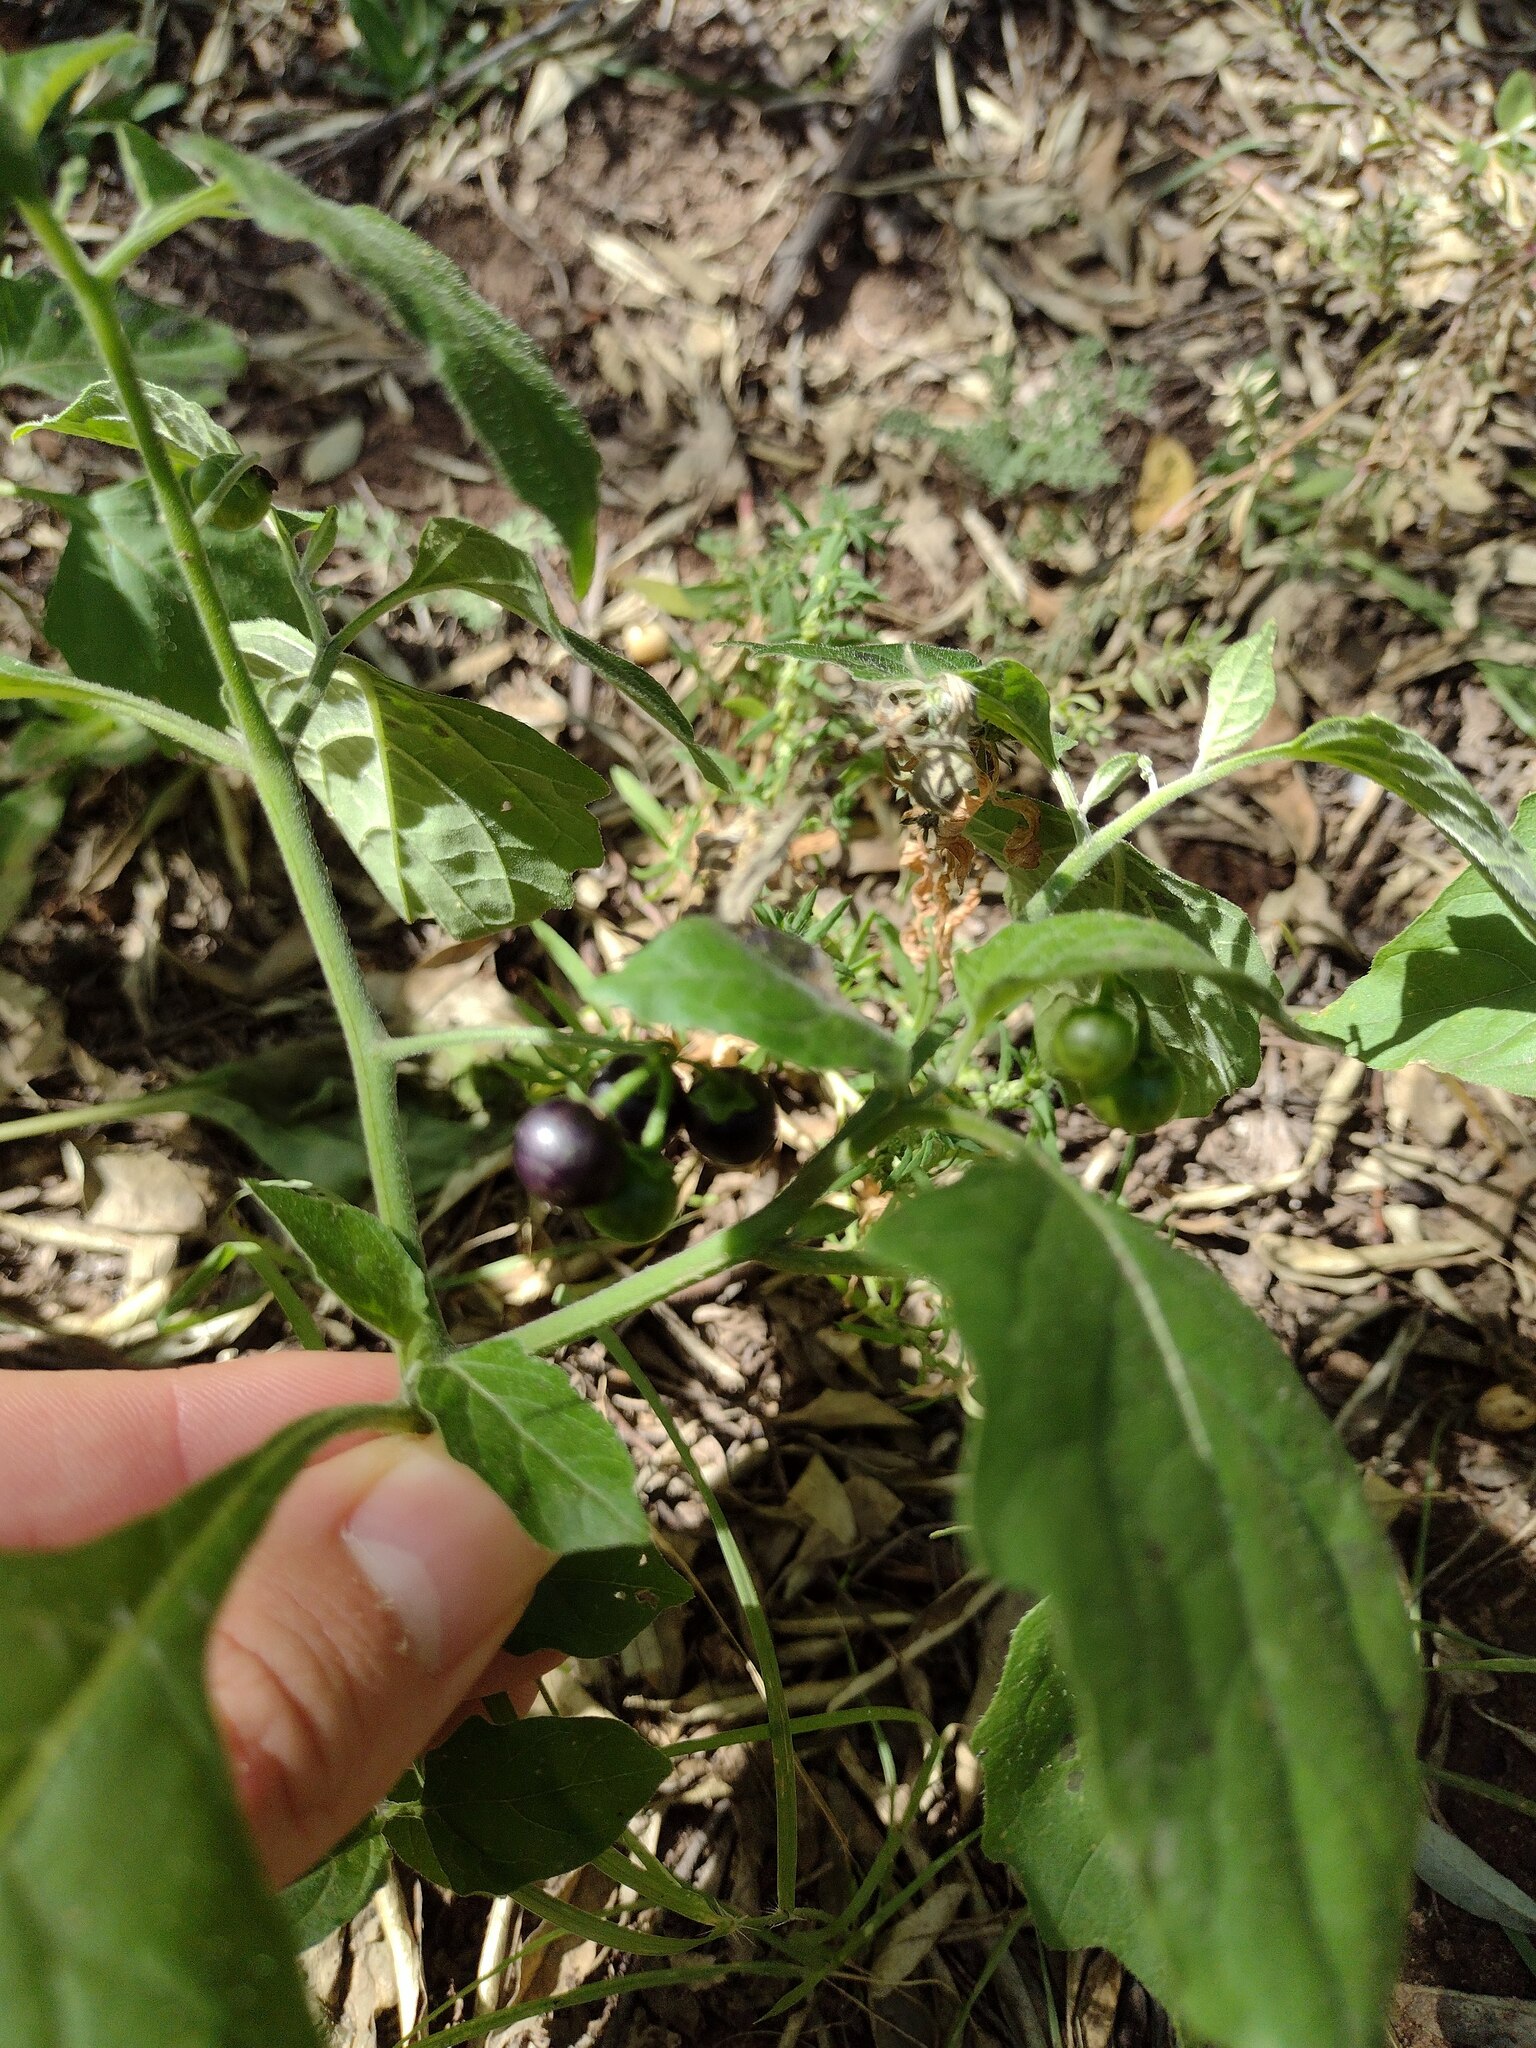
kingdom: Plantae
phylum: Tracheophyta
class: Magnoliopsida
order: Solanales
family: Solanaceae
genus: Solanum
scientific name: Solanum emulans
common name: Eastern black nightshade
